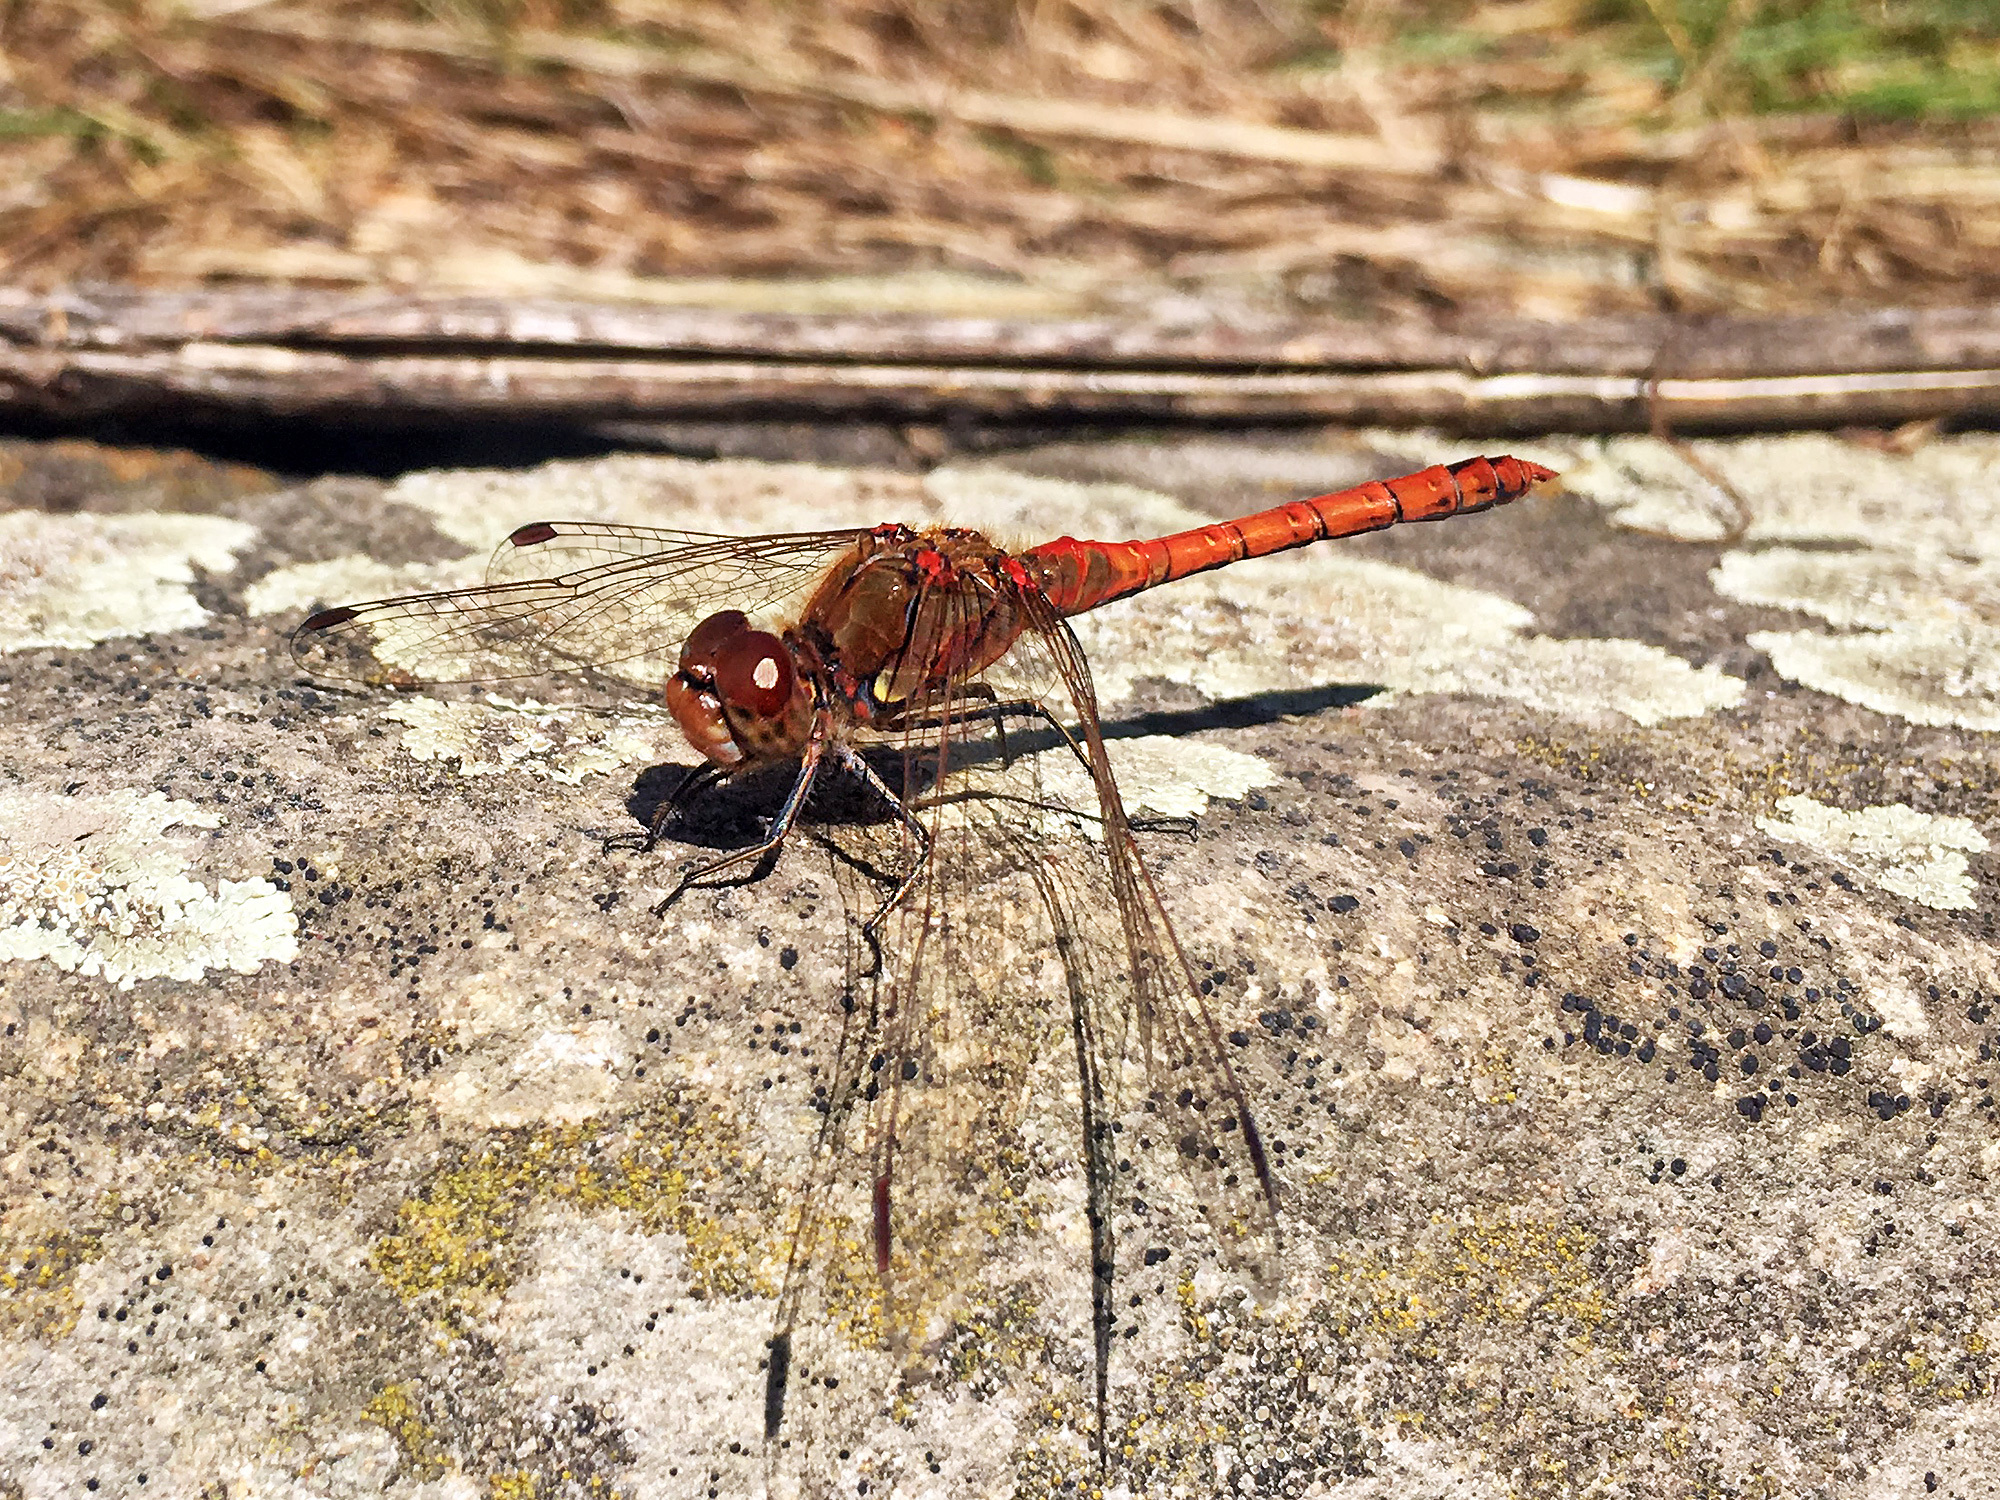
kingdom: Animalia
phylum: Arthropoda
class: Insecta
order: Odonata
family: Libellulidae
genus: Sympetrum
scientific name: Sympetrum striolatum
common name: Common darter
